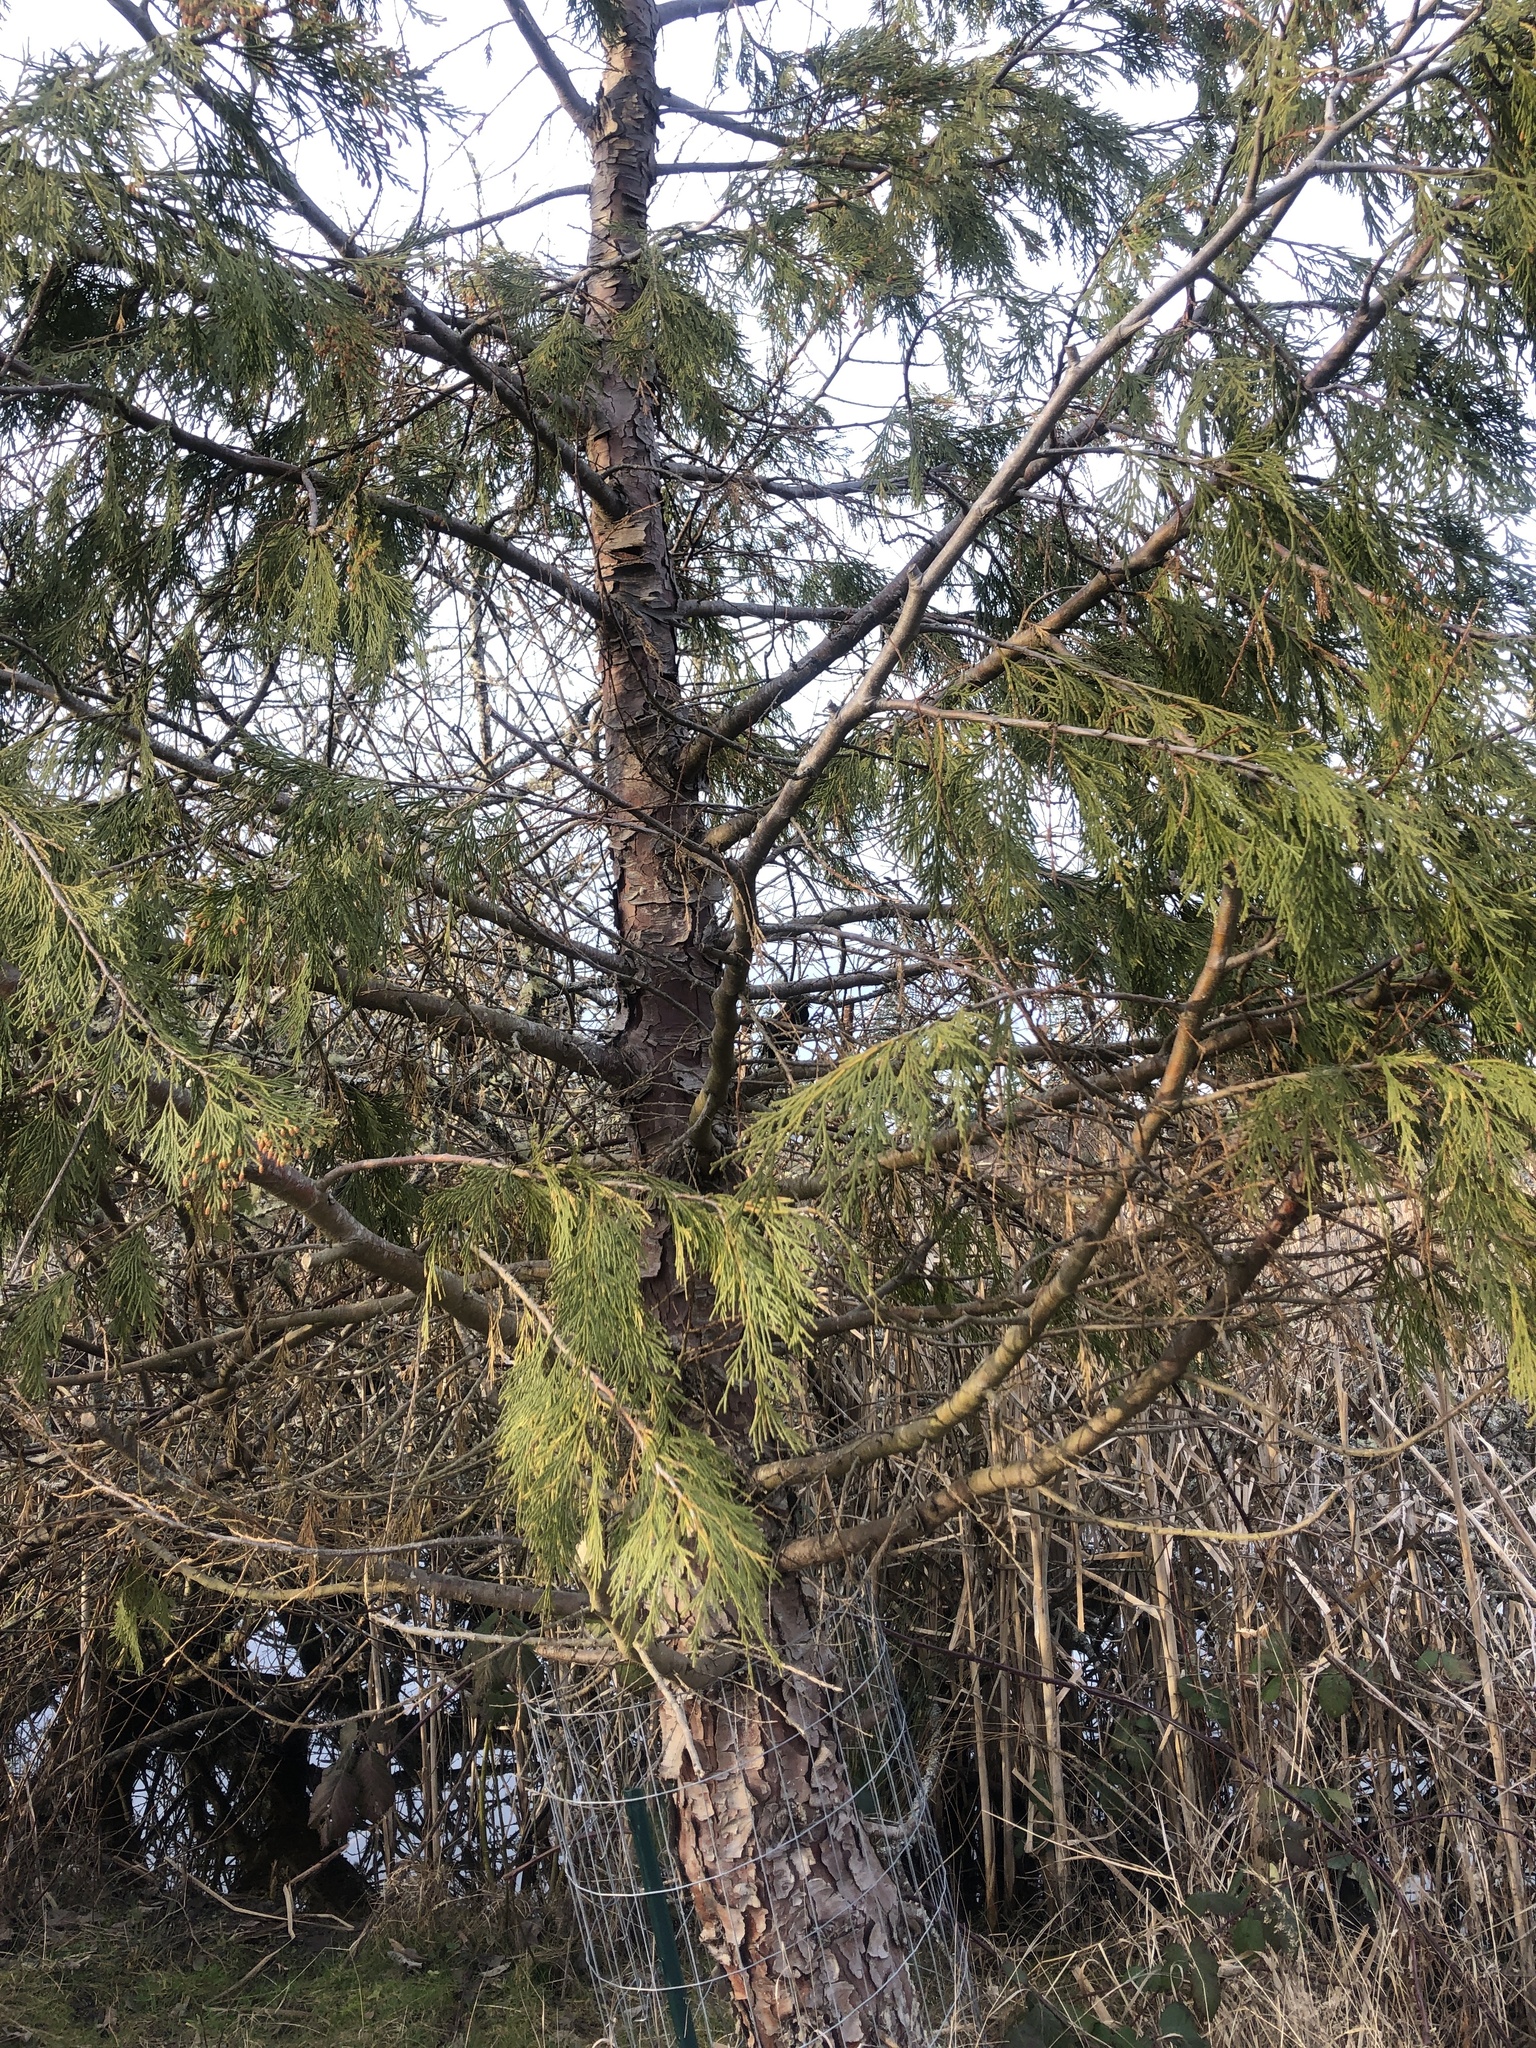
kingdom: Animalia
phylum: Chordata
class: Aves
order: Passeriformes
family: Icteridae
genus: Agelaius
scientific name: Agelaius phoeniceus
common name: Red-winged blackbird
